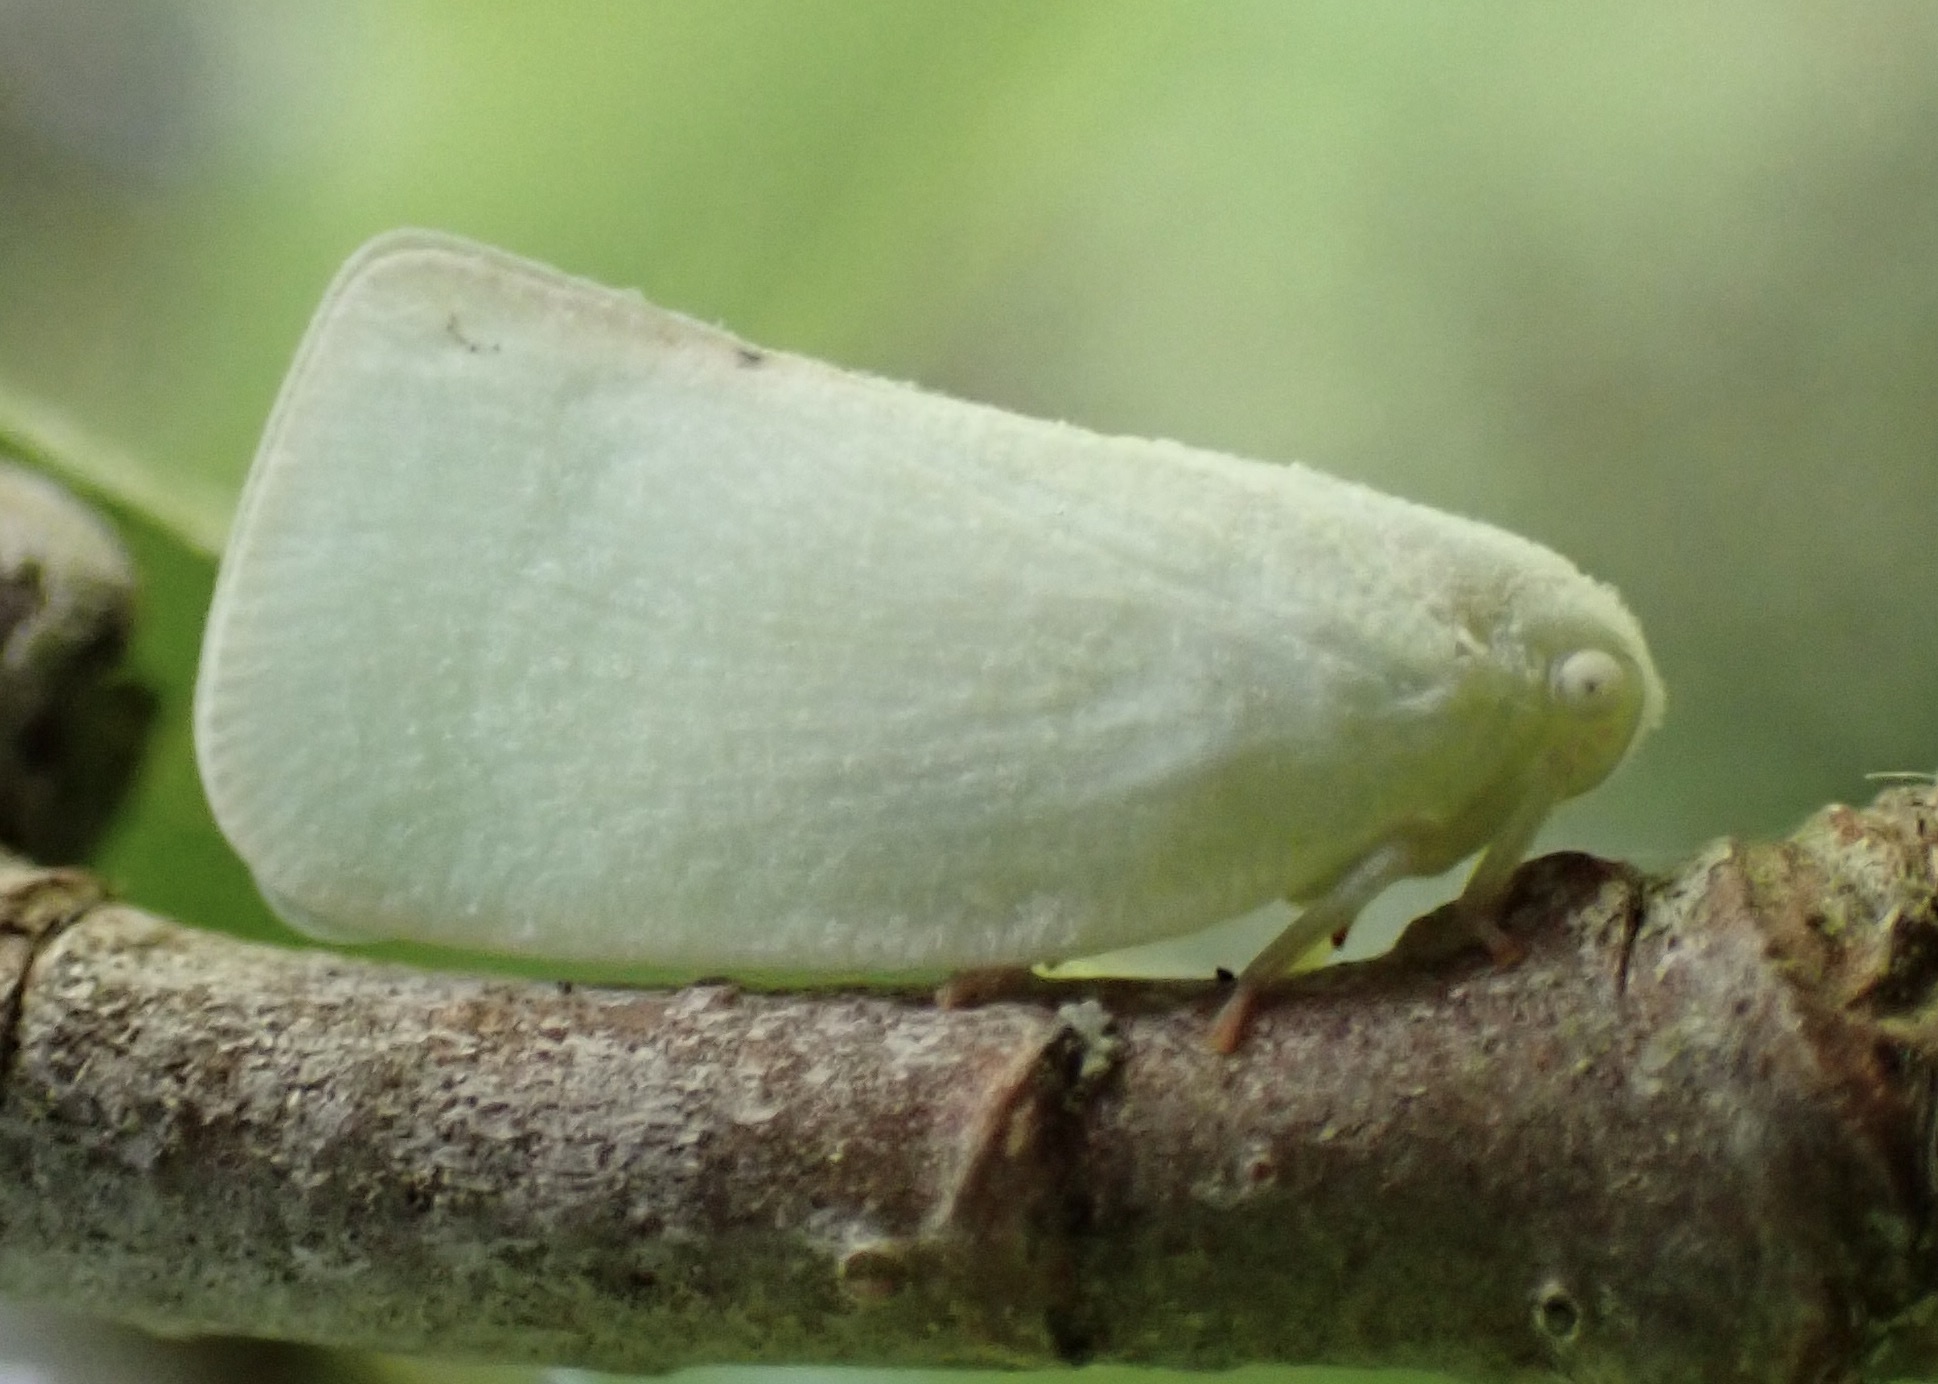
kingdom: Animalia
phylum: Arthropoda
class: Insecta
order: Hemiptera
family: Flatidae
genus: Flatormenis
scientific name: Flatormenis proxima
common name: Northern flatid planthopper
